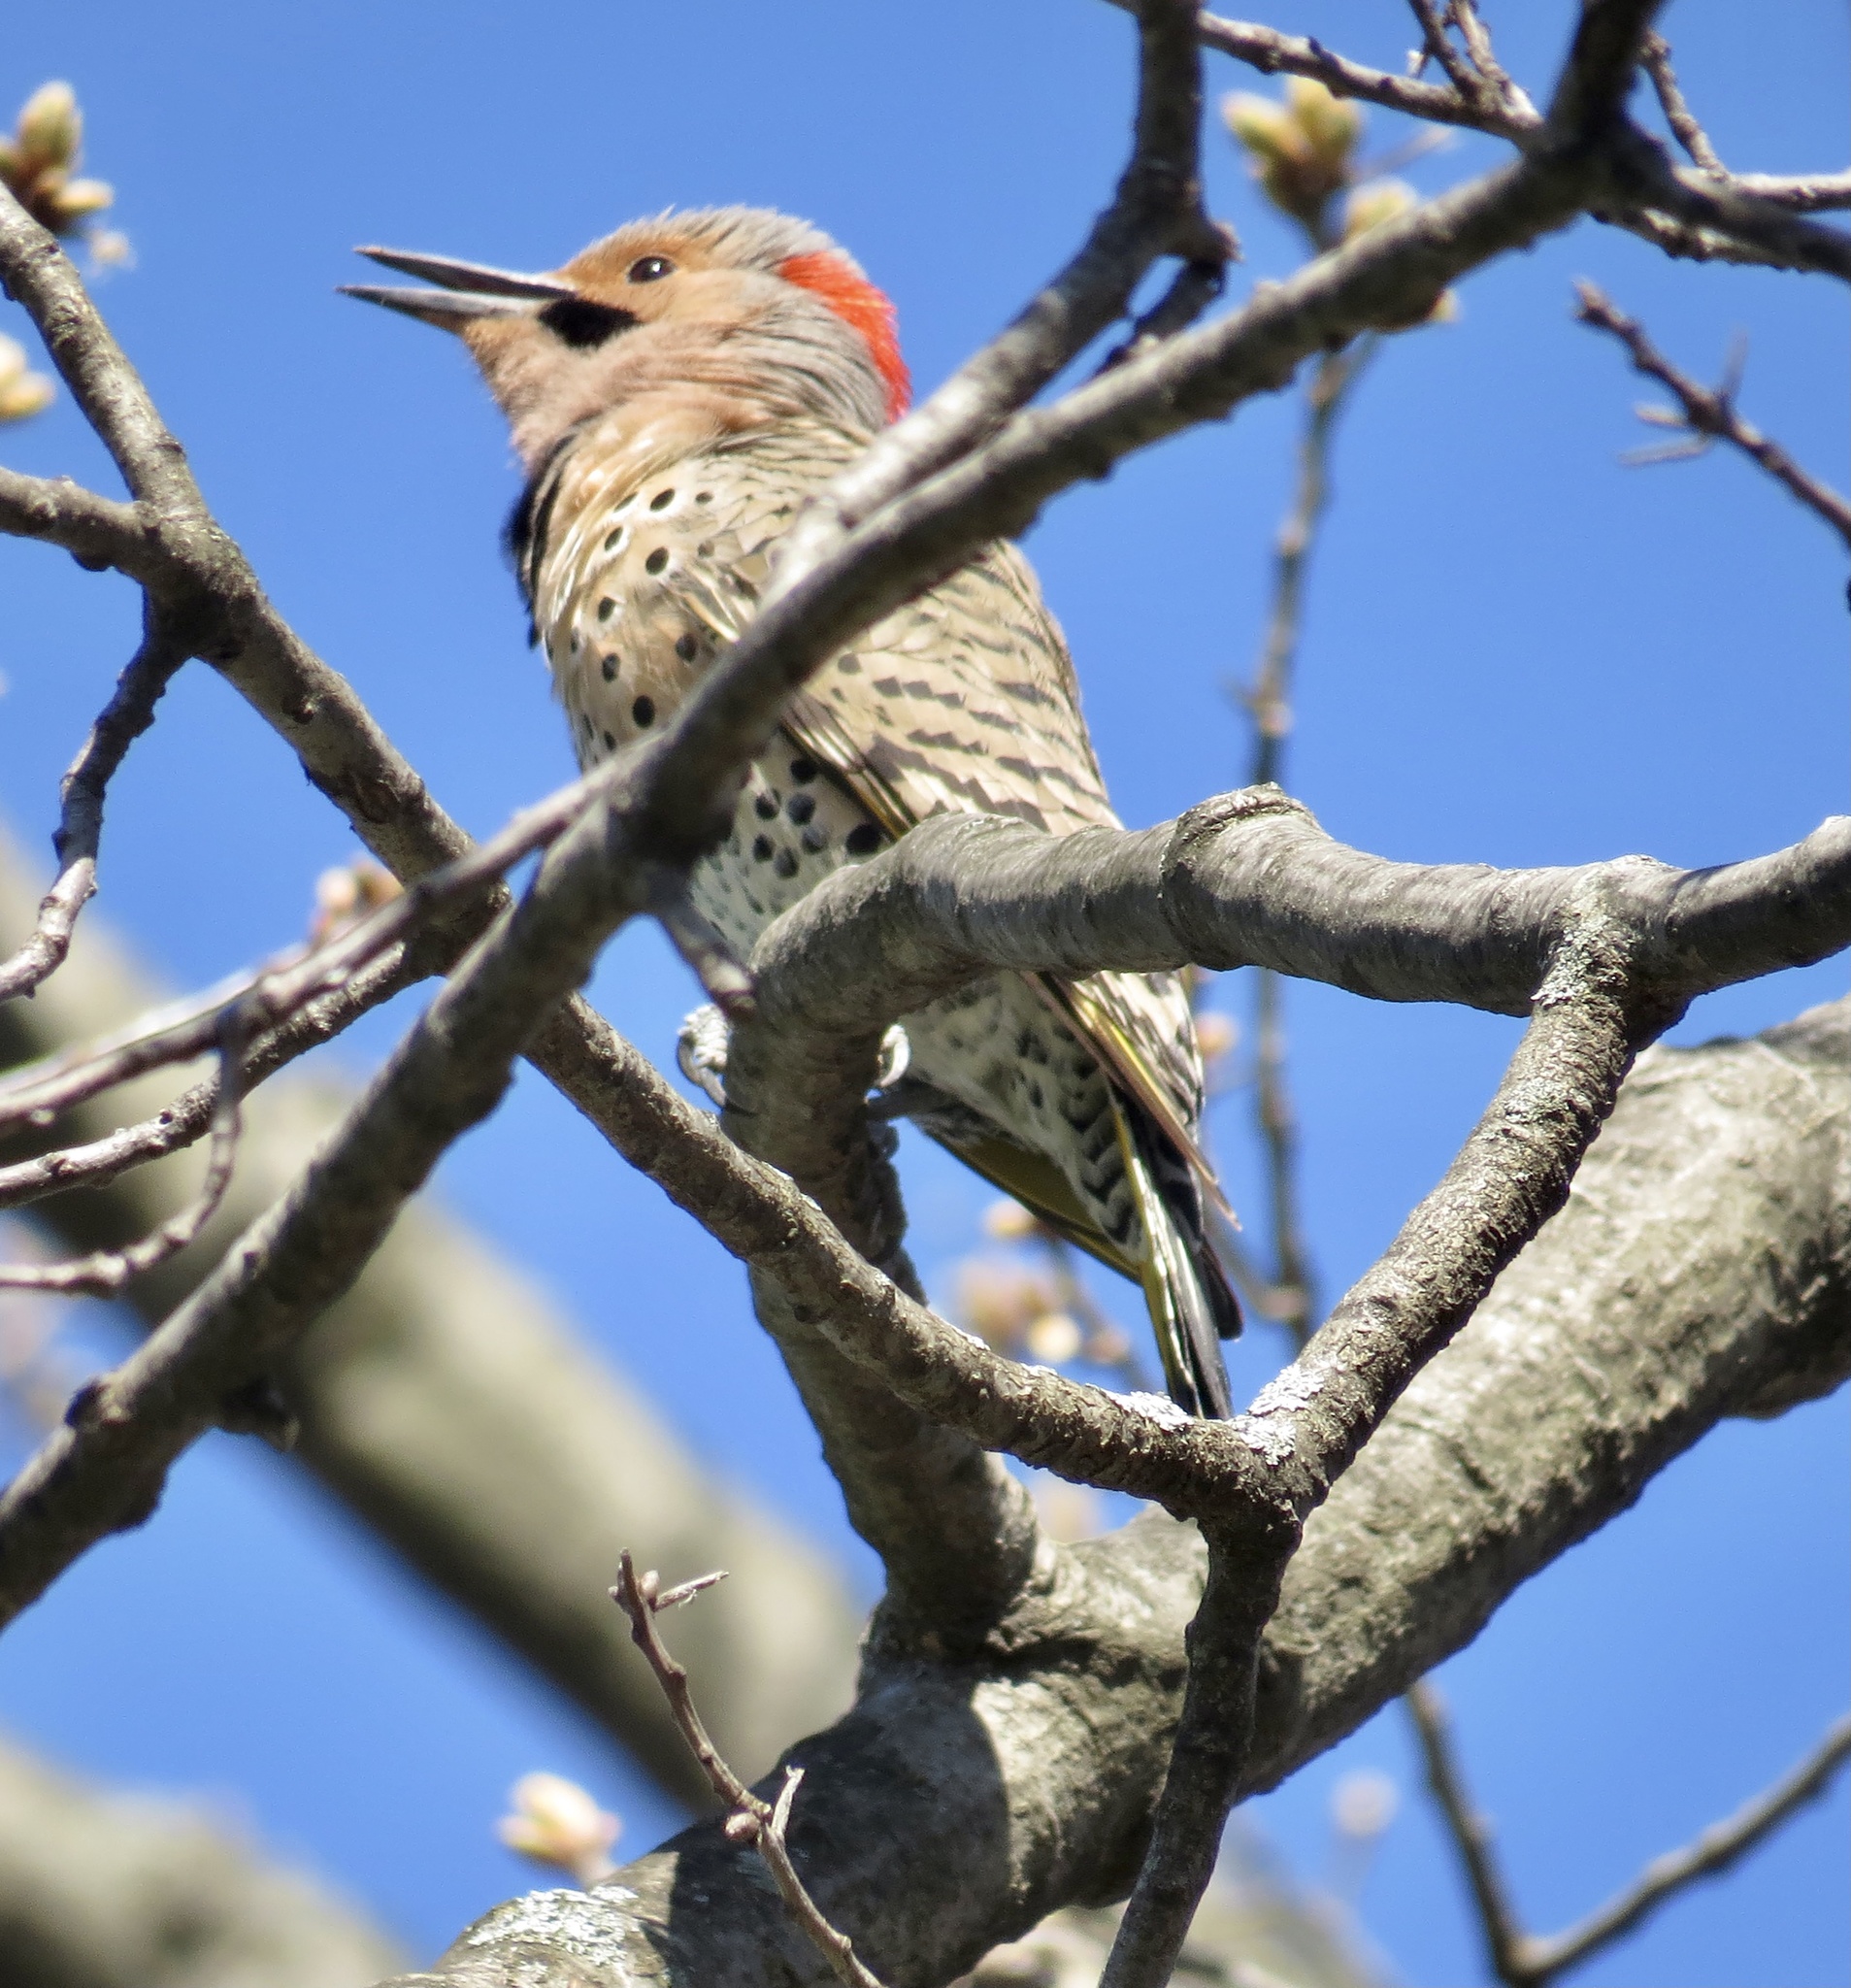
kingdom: Animalia
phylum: Chordata
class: Aves
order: Piciformes
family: Picidae
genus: Colaptes
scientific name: Colaptes auratus
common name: Northern flicker
